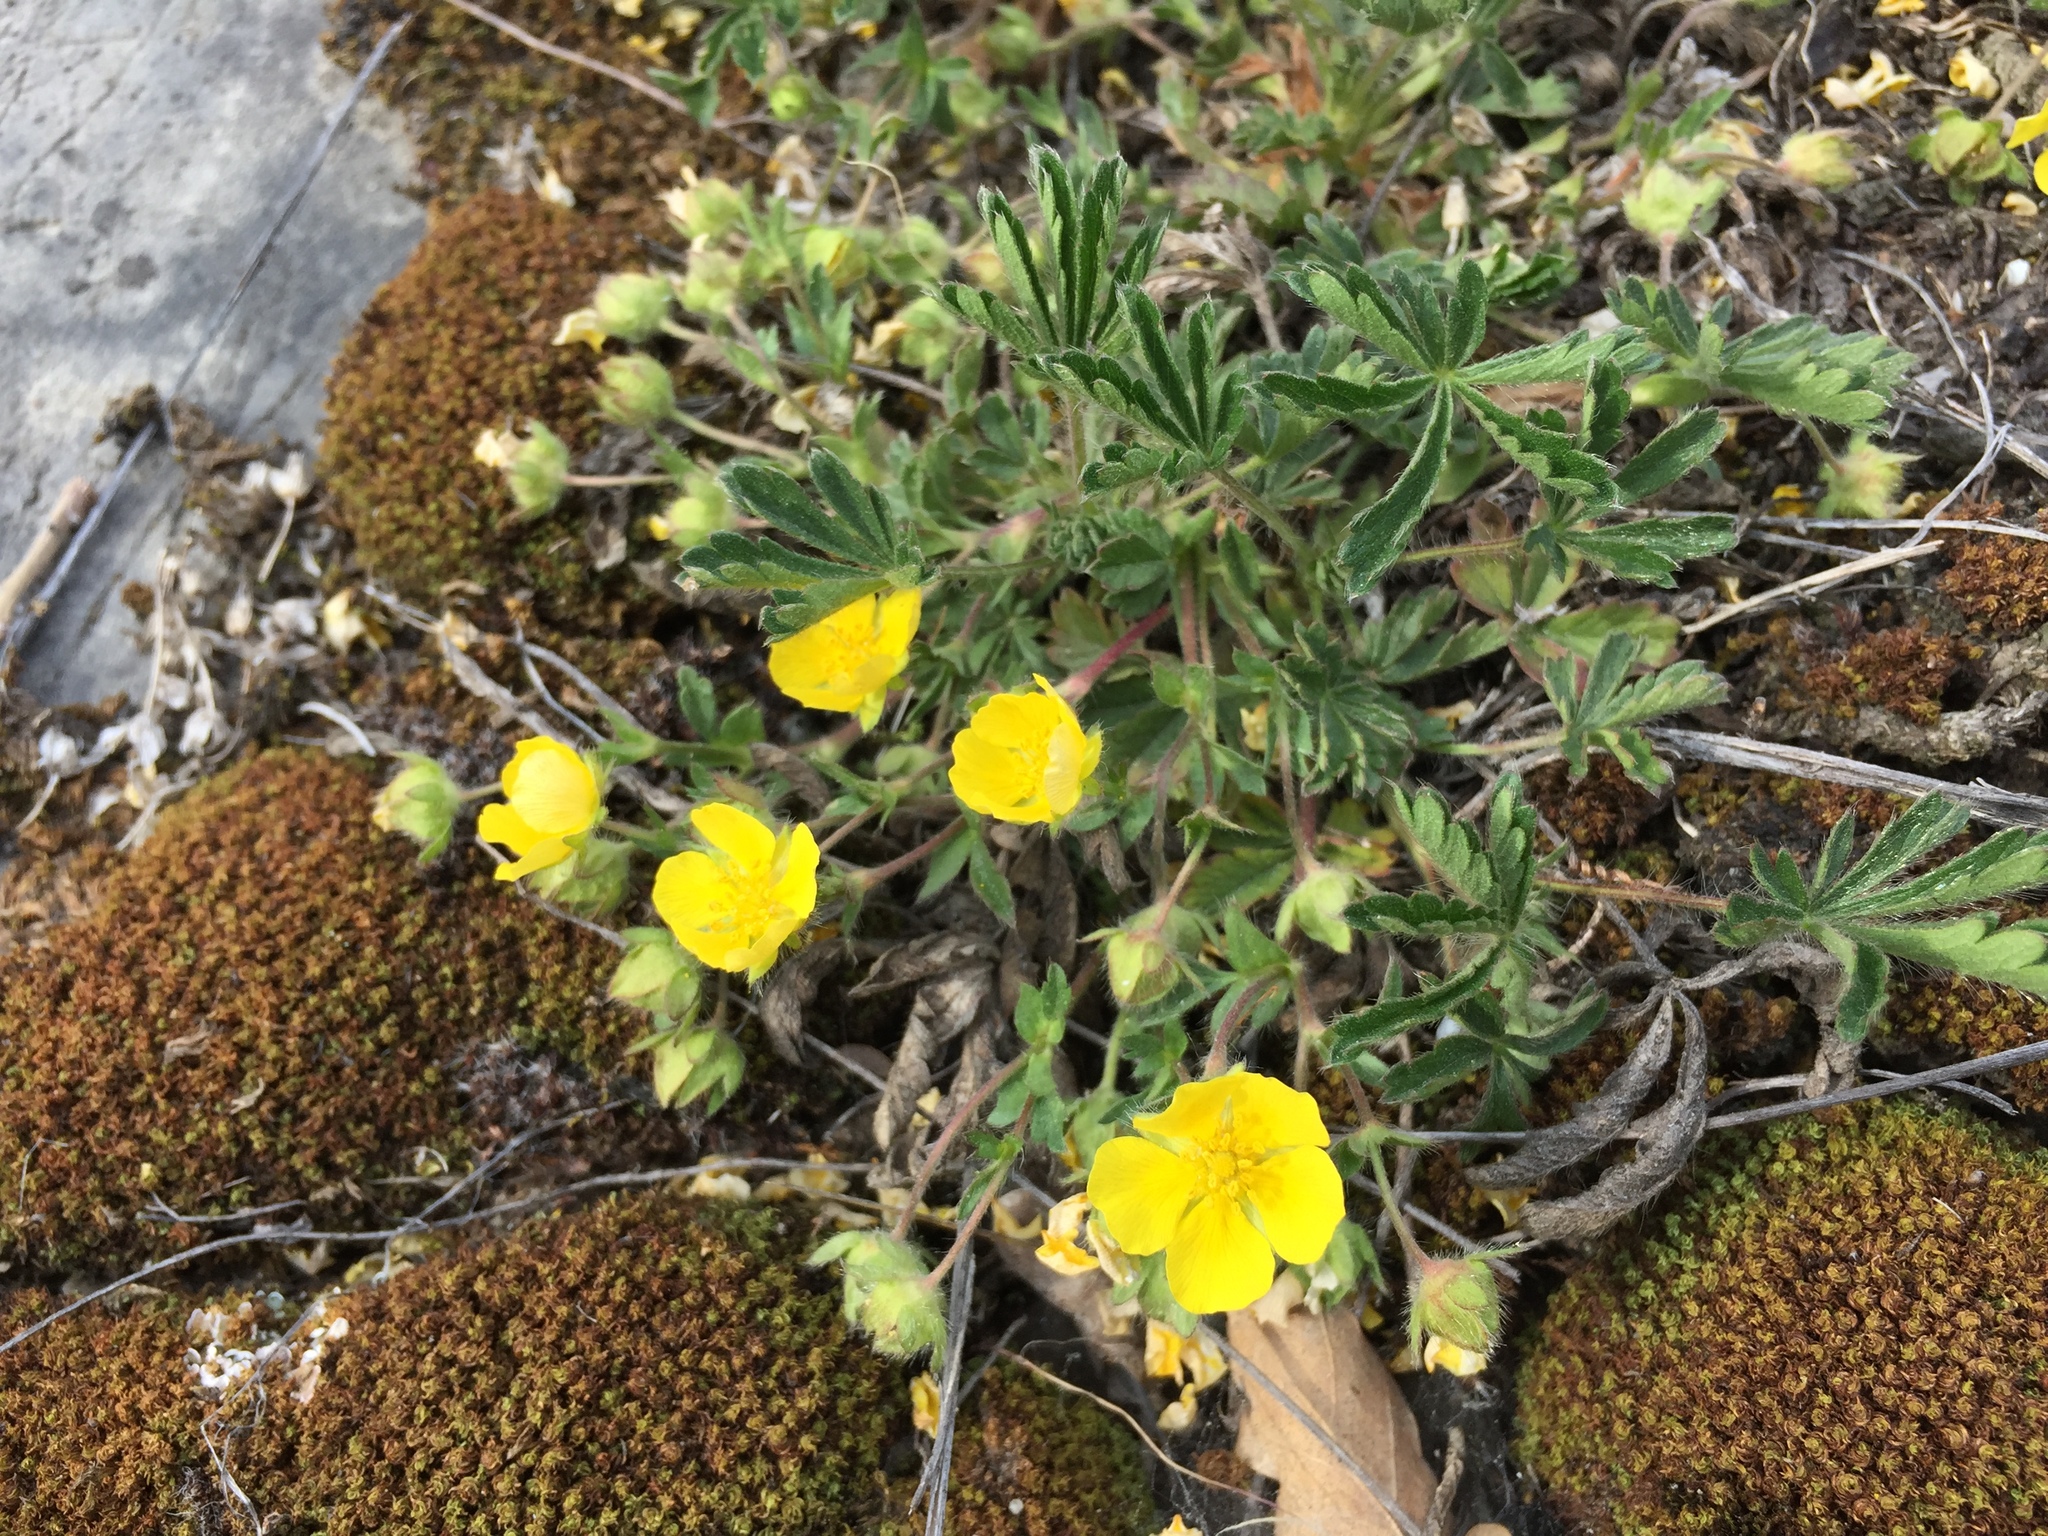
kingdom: Plantae
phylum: Tracheophyta
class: Magnoliopsida
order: Rosales
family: Rosaceae
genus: Potentilla
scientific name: Potentilla verna
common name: Spring cinquefoil
